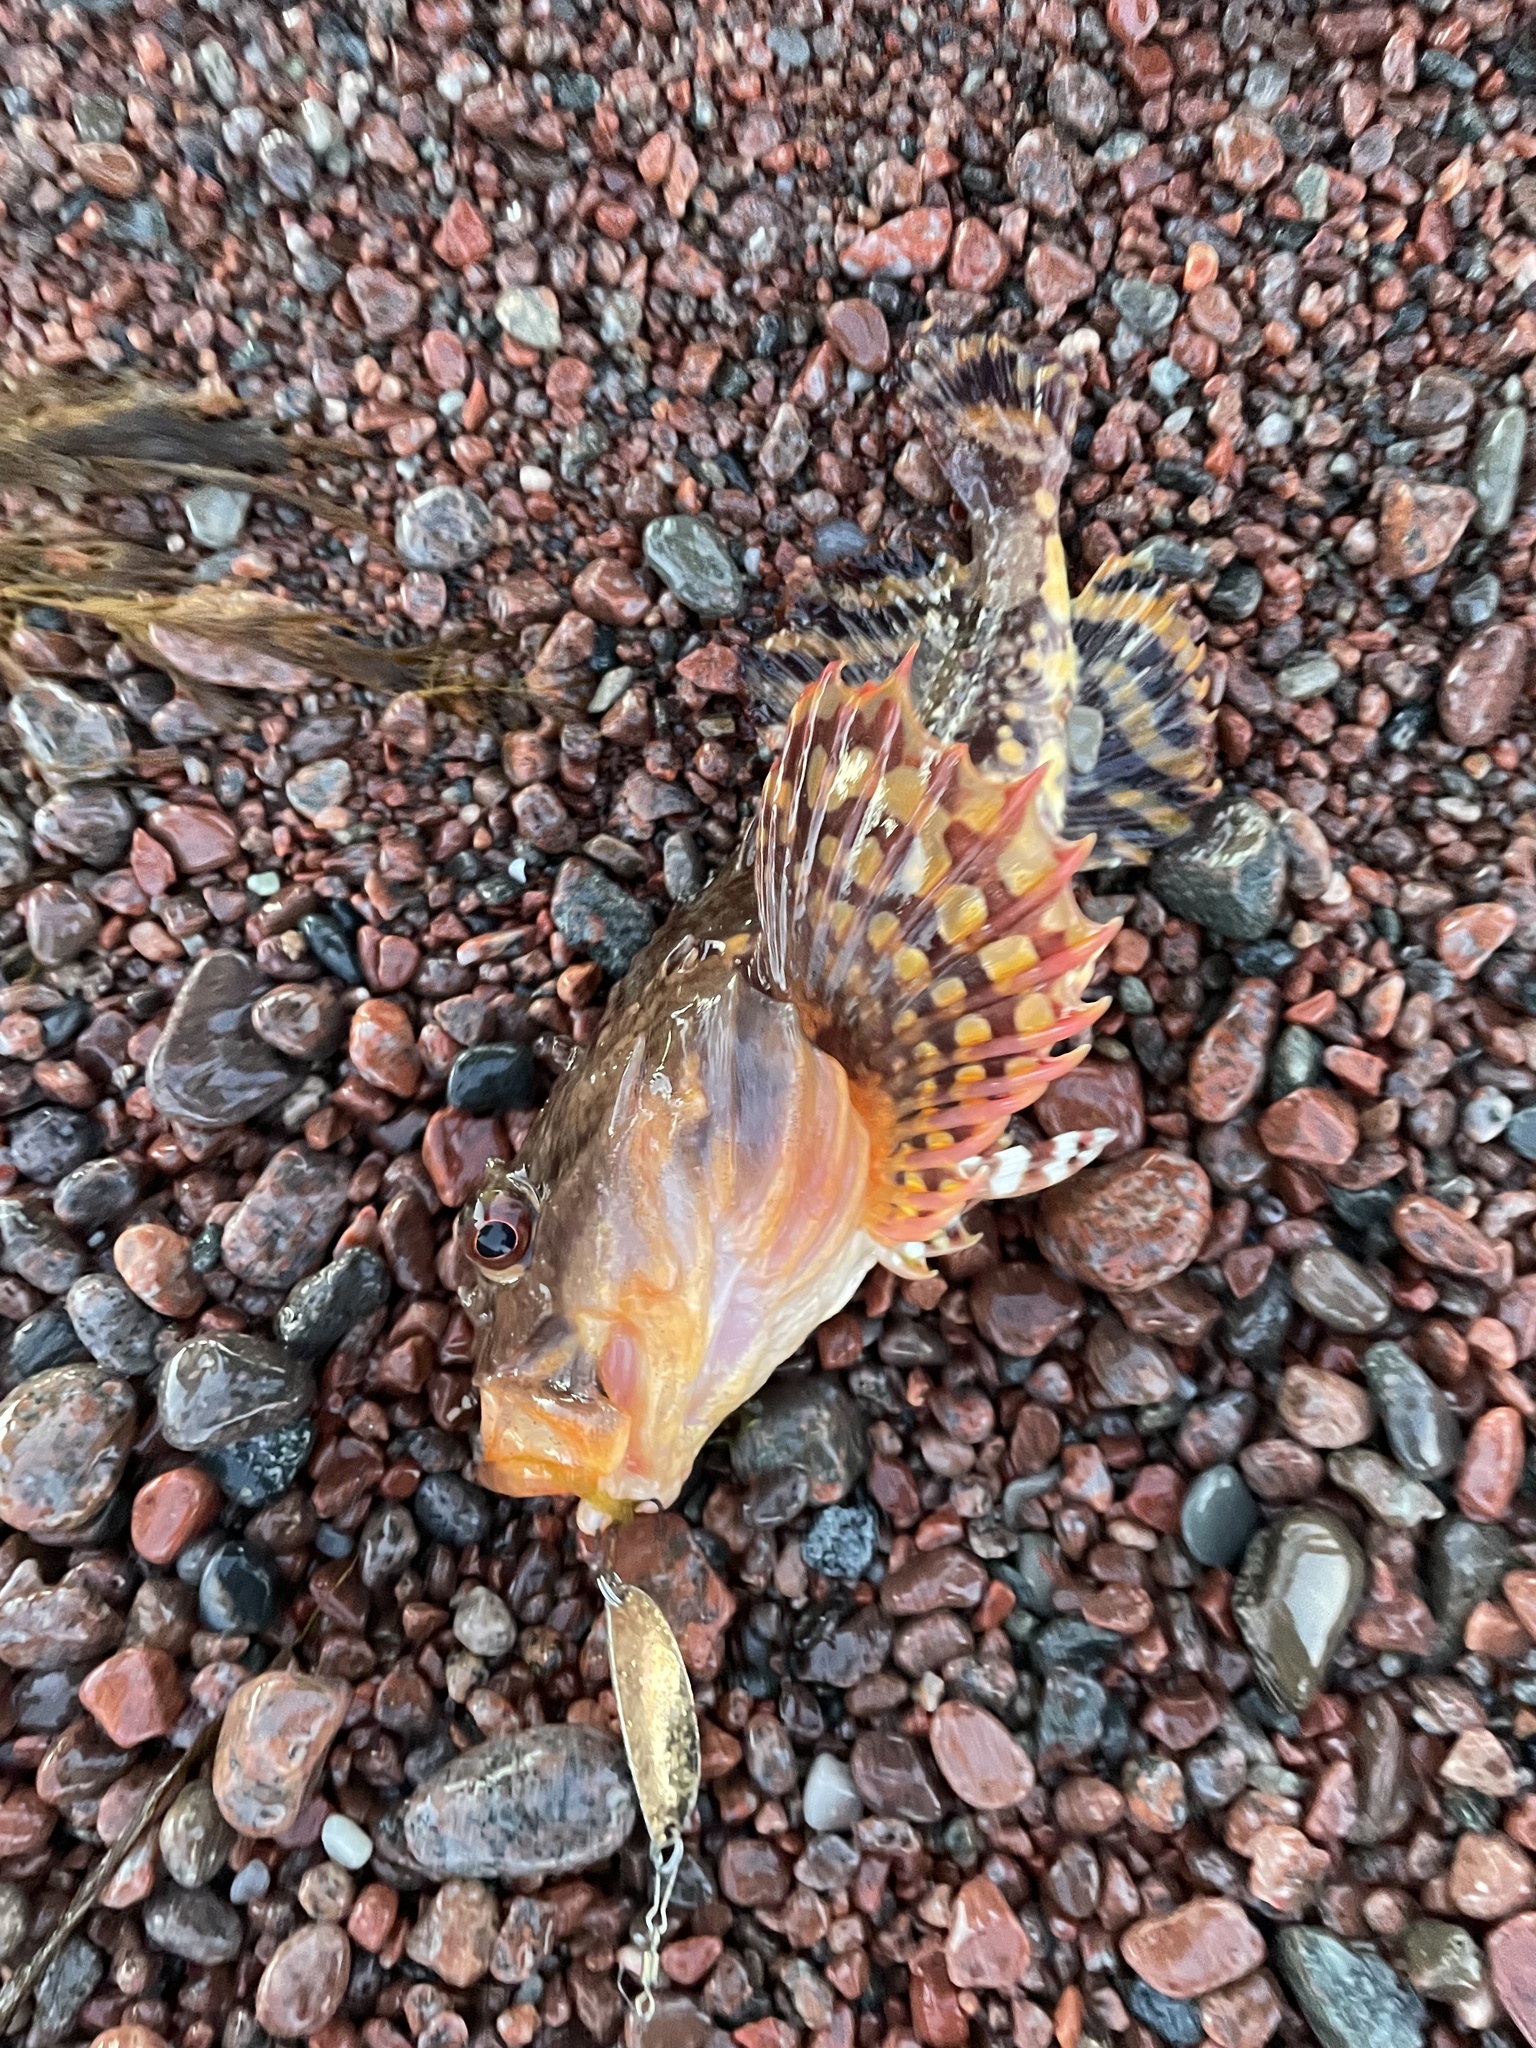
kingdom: Animalia
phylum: Chordata
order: Scorpaeniformes
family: Cottidae
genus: Myoxocephalus
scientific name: Myoxocephalus scorpius
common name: Shorthorn sculpin
